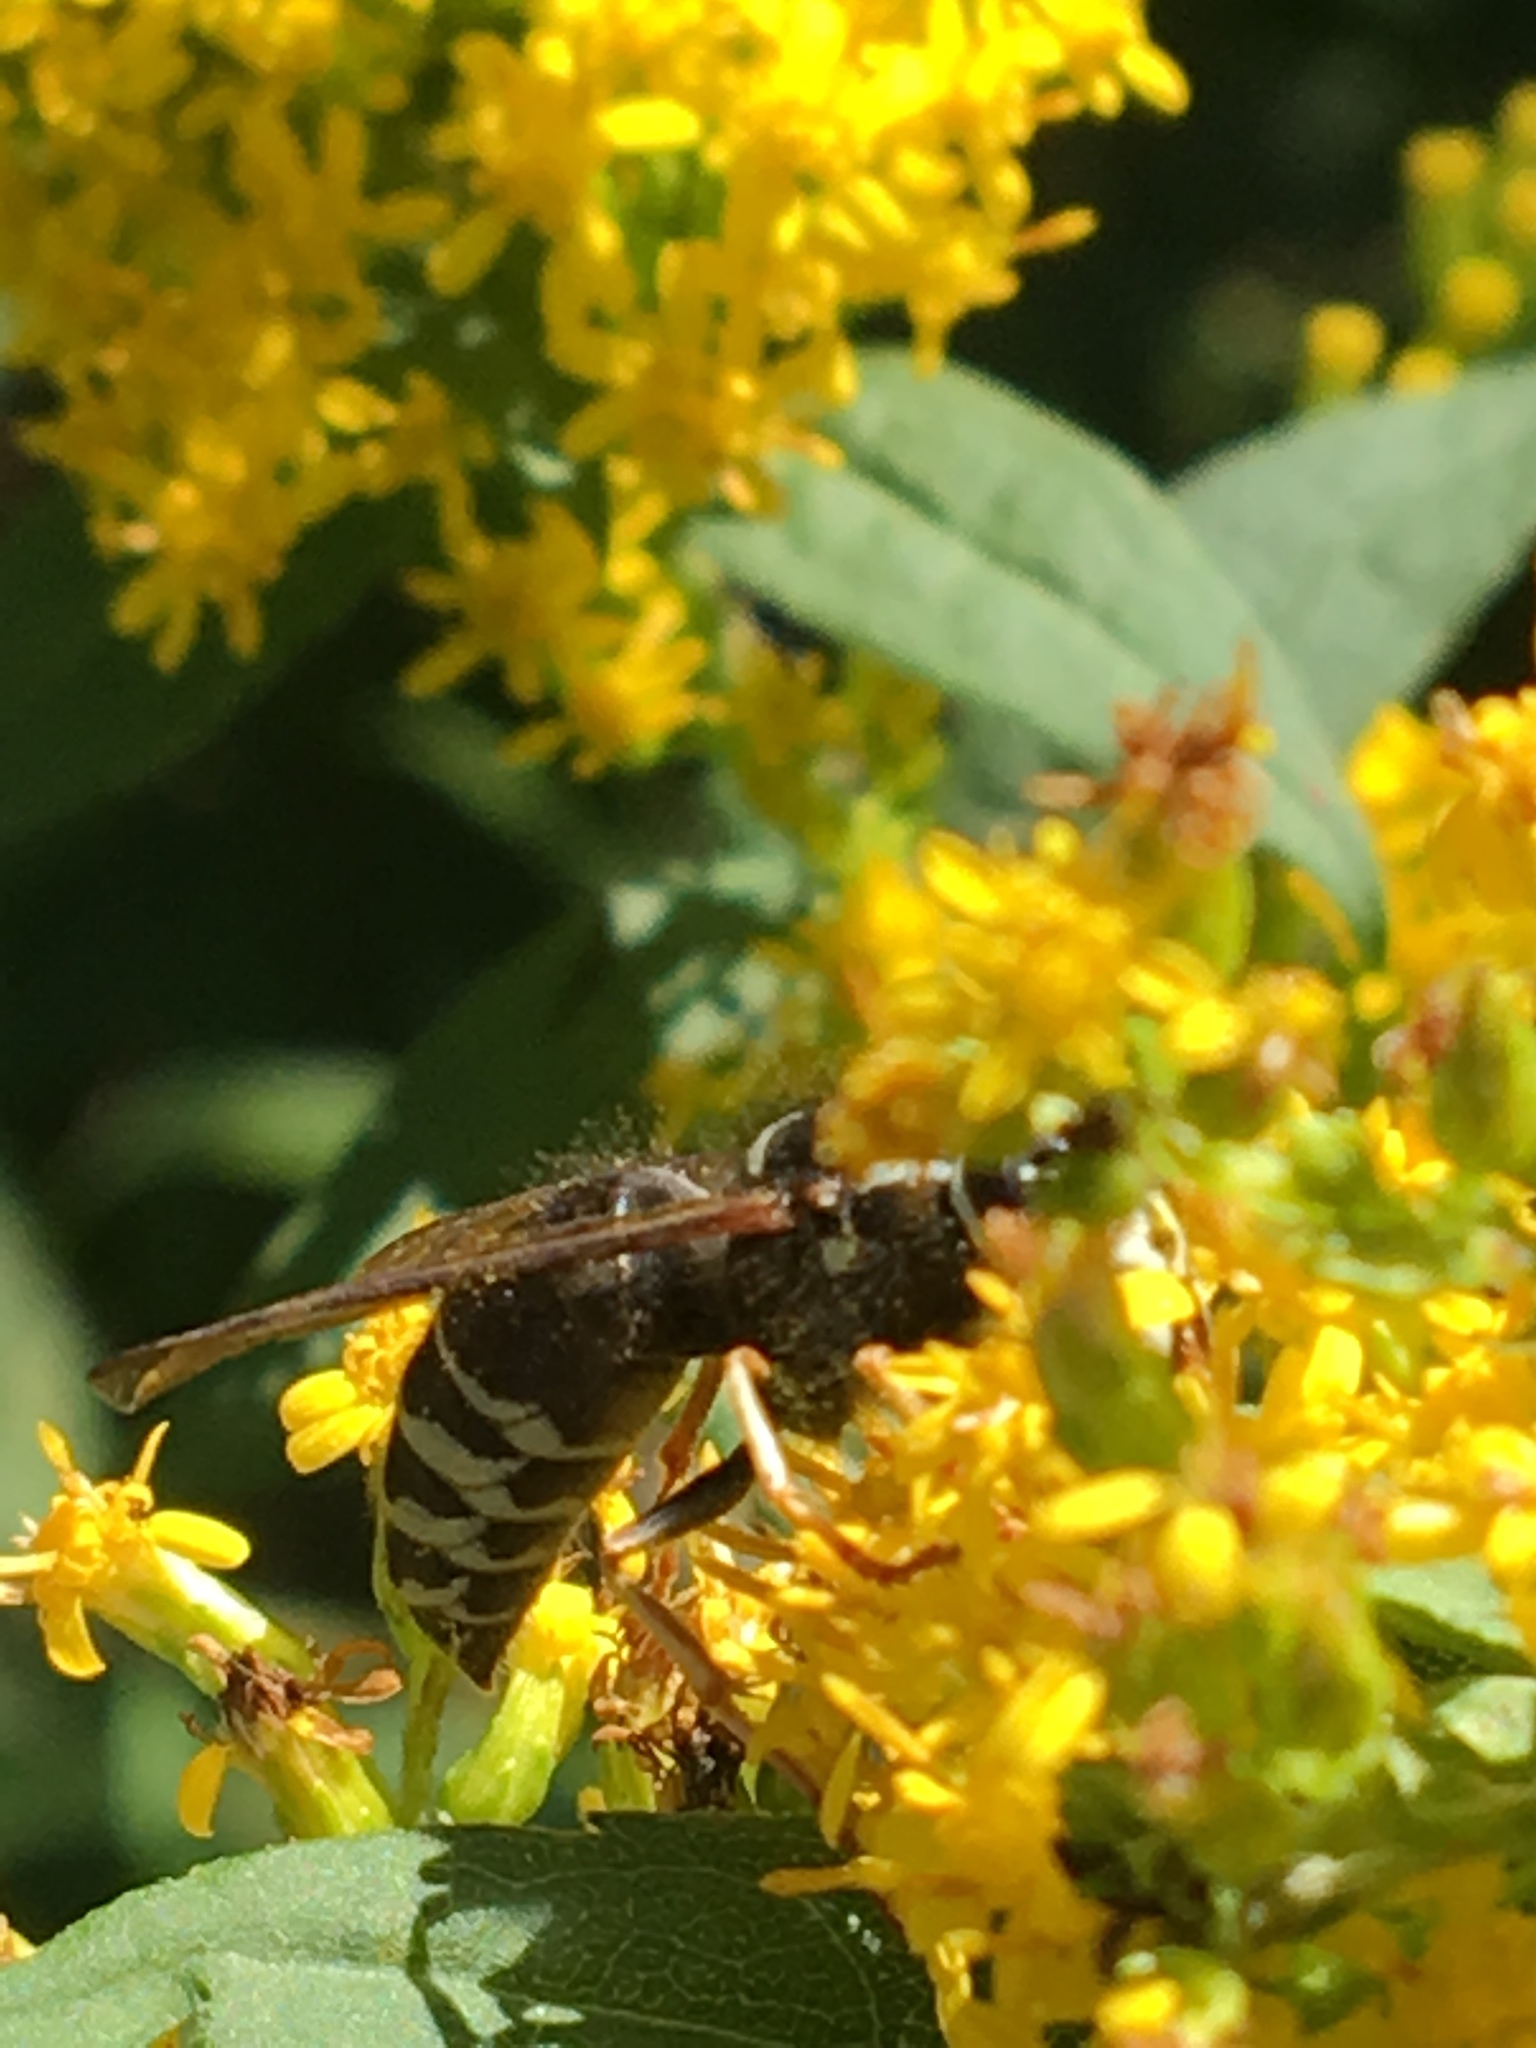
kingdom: Animalia
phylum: Arthropoda
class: Insecta
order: Hymenoptera
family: Vespidae
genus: Vespula
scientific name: Vespula consobrina
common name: Blackjacket
